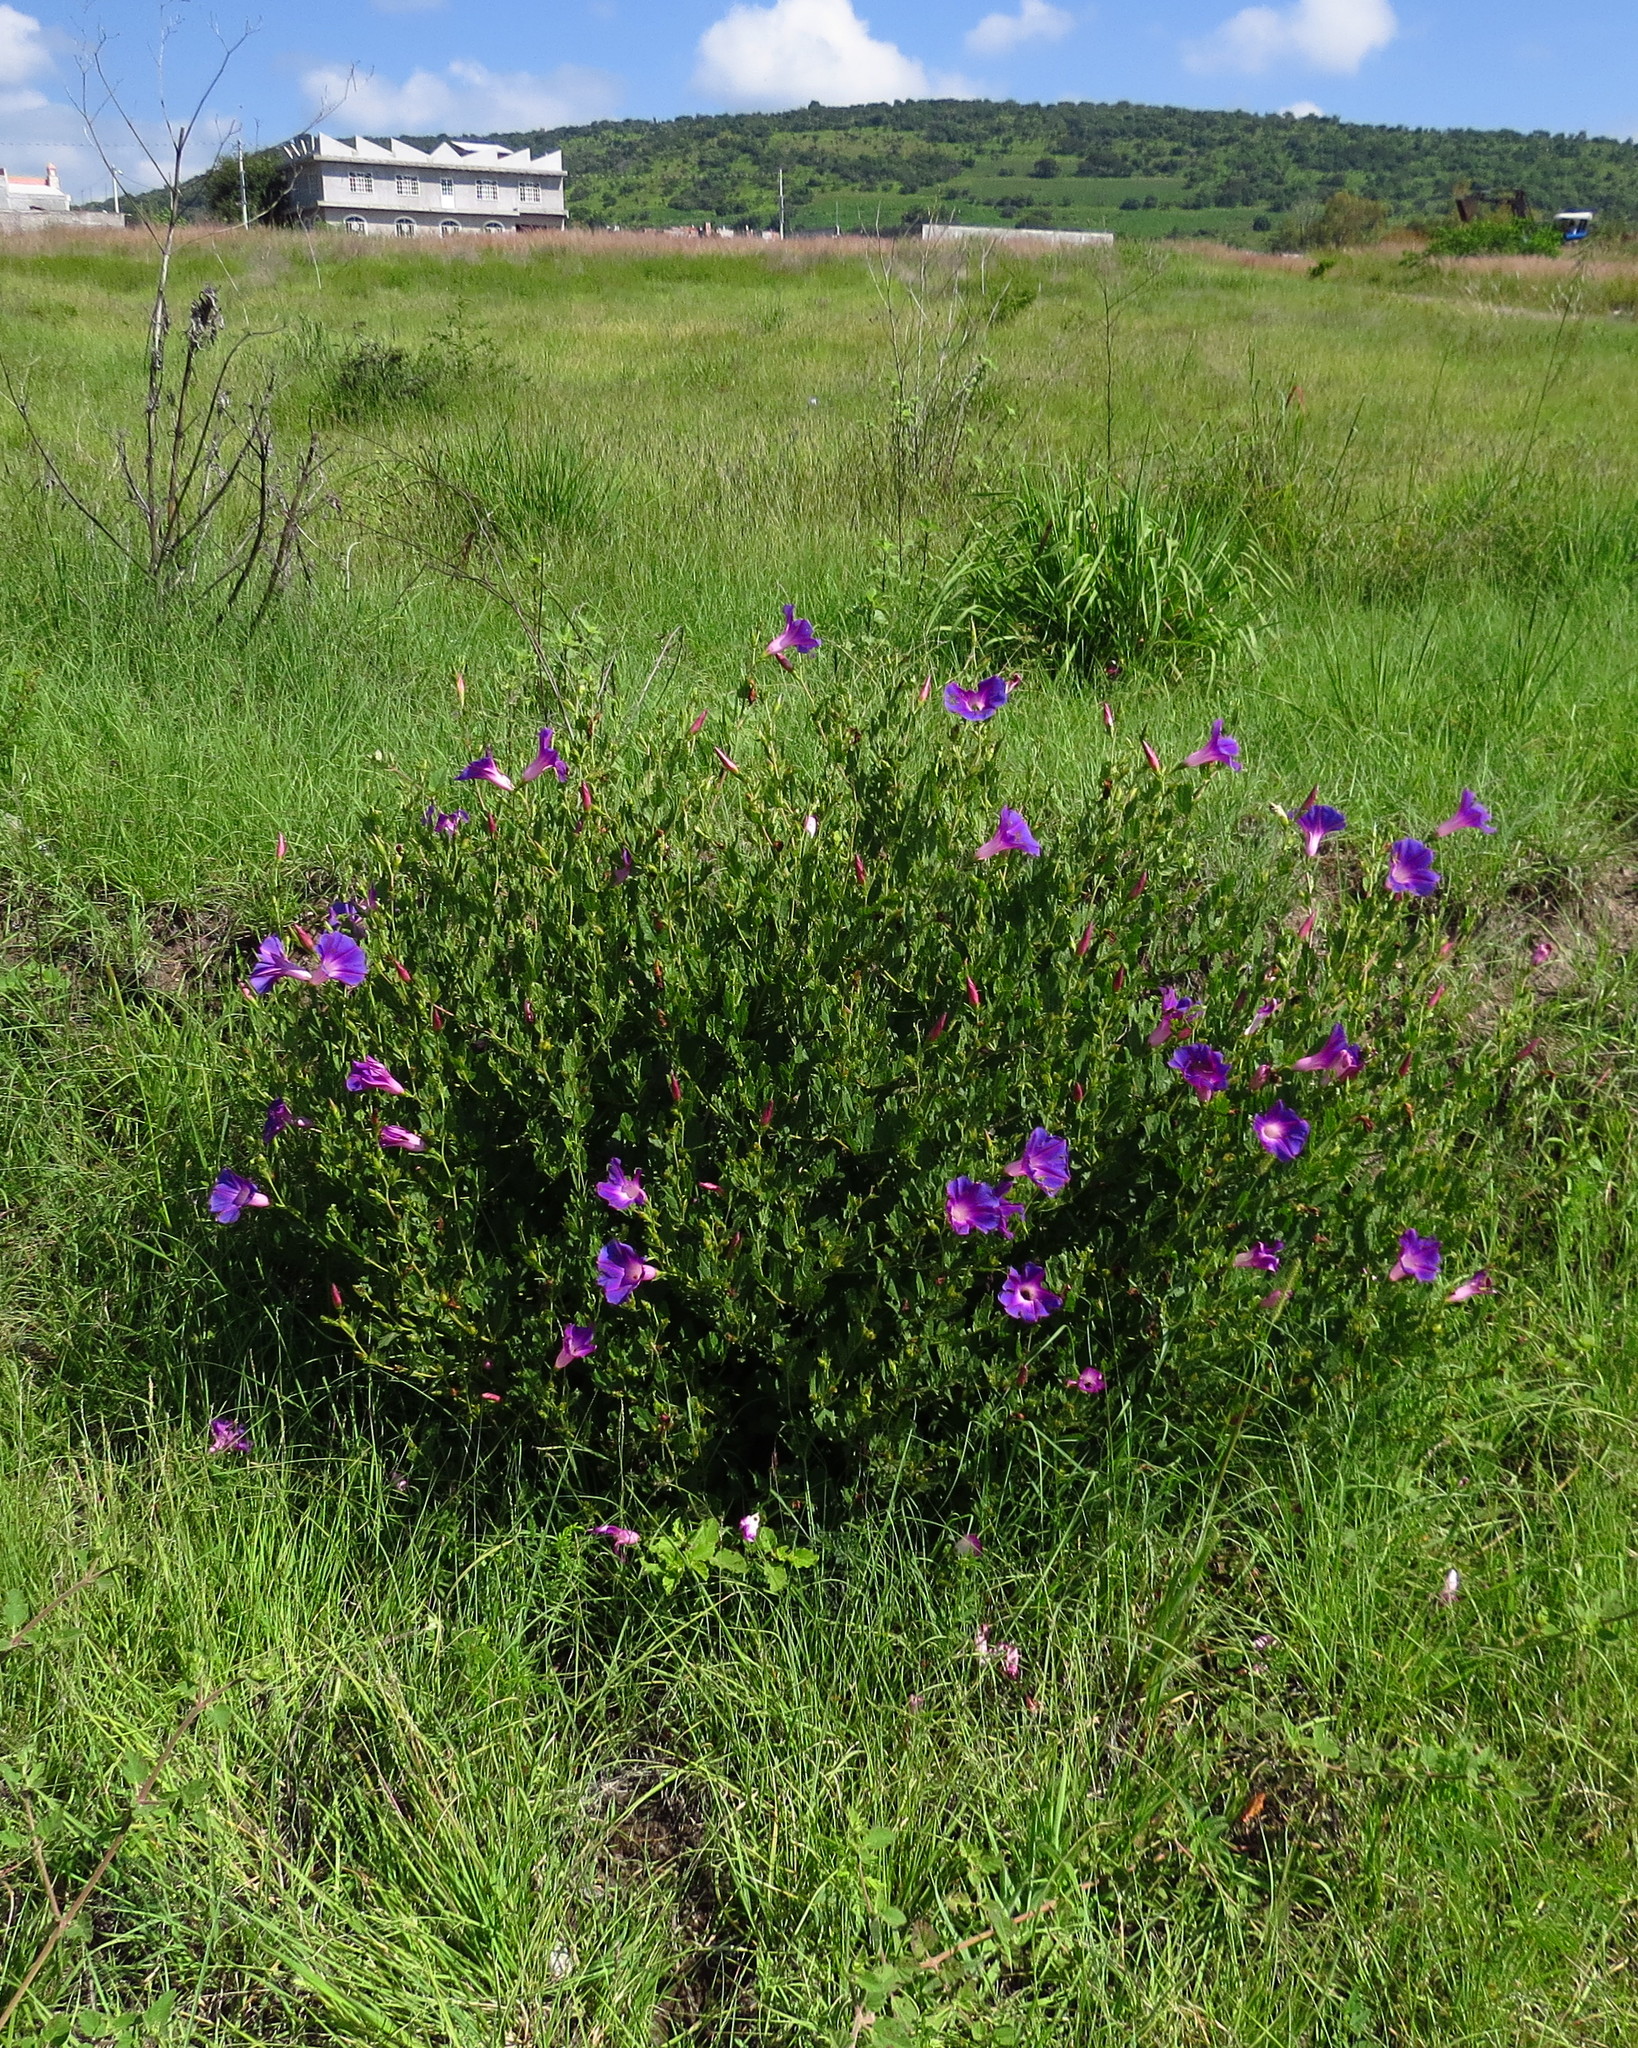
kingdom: Plantae
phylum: Tracheophyta
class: Magnoliopsida
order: Solanales
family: Convolvulaceae
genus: Ipomoea
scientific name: Ipomoea stans
